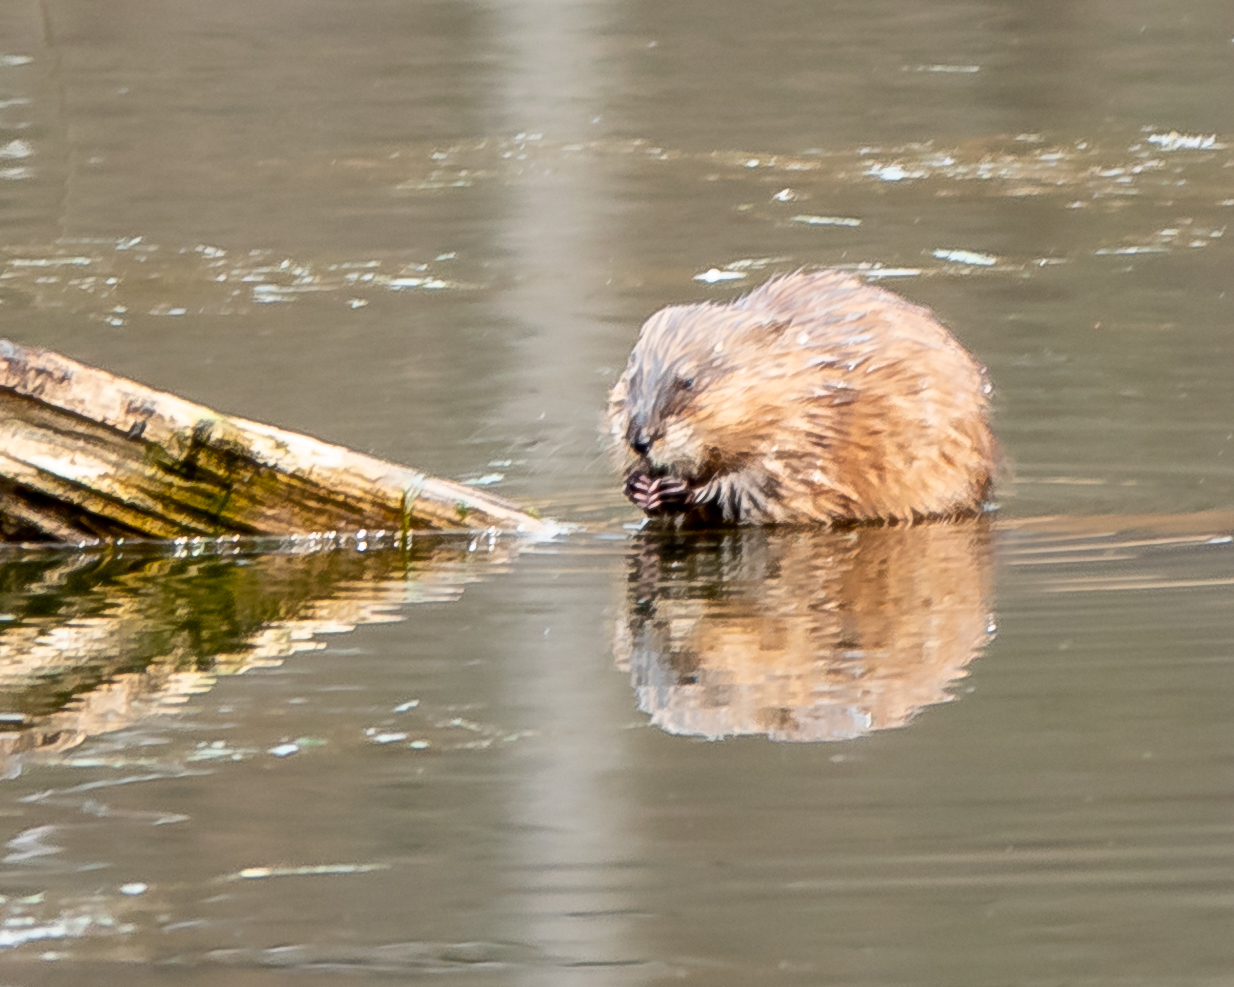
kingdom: Animalia
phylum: Chordata
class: Mammalia
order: Rodentia
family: Cricetidae
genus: Ondatra
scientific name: Ondatra zibethicus
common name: Muskrat
